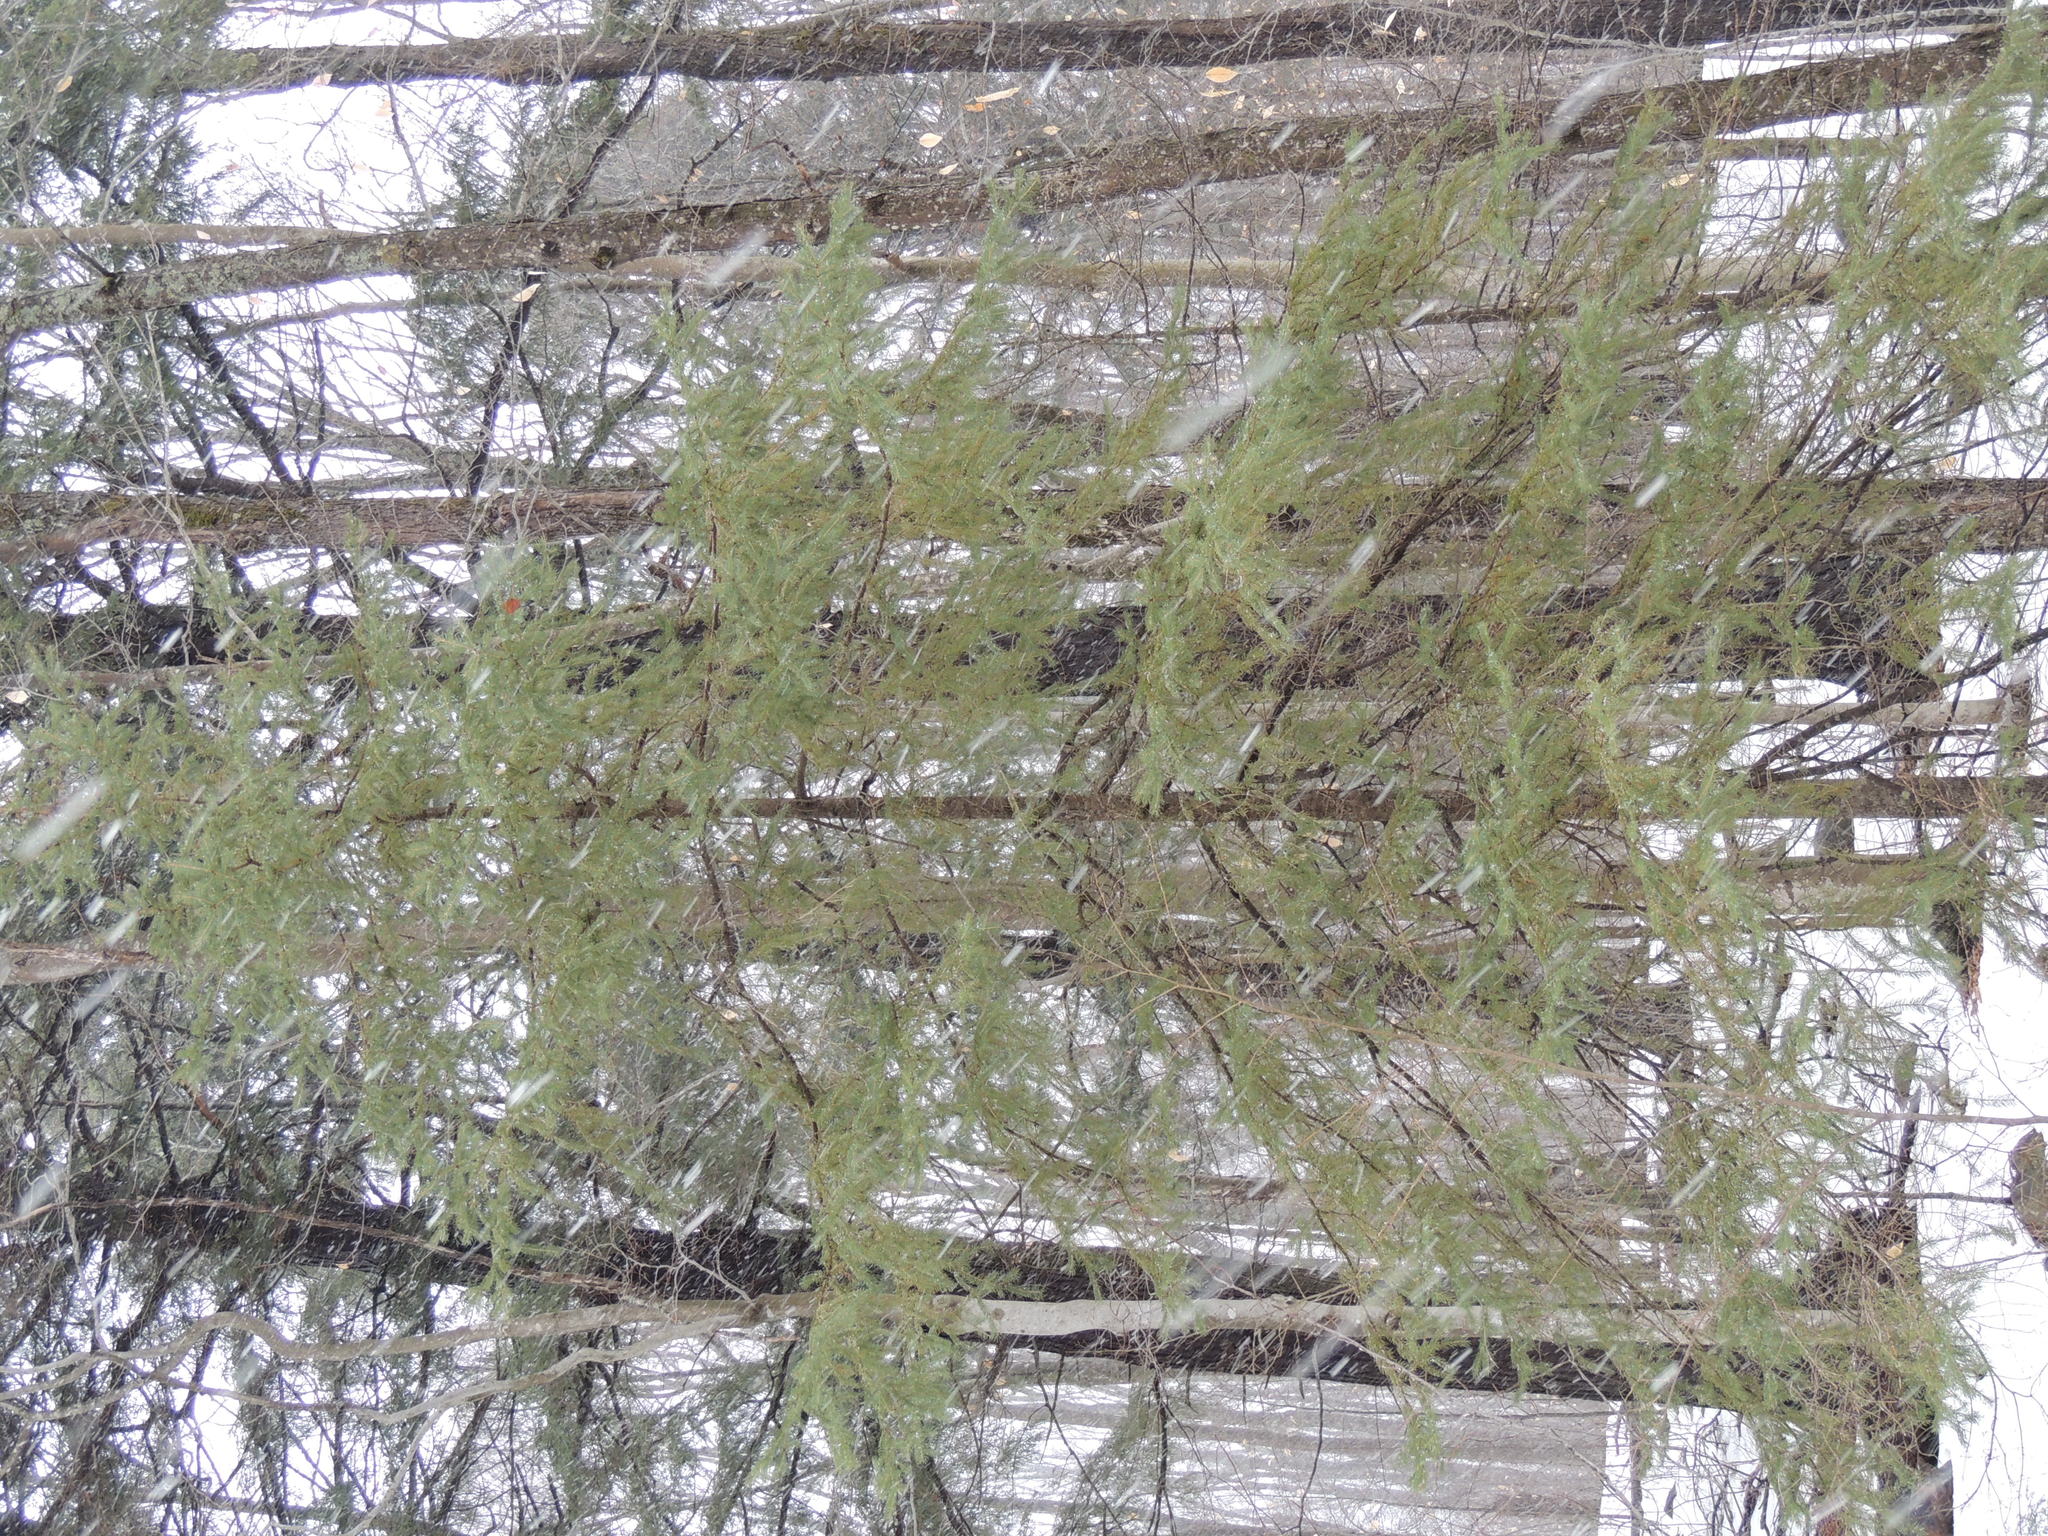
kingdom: Plantae
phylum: Tracheophyta
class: Pinopsida
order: Pinales
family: Pinaceae
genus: Picea
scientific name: Picea glauca
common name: White spruce
